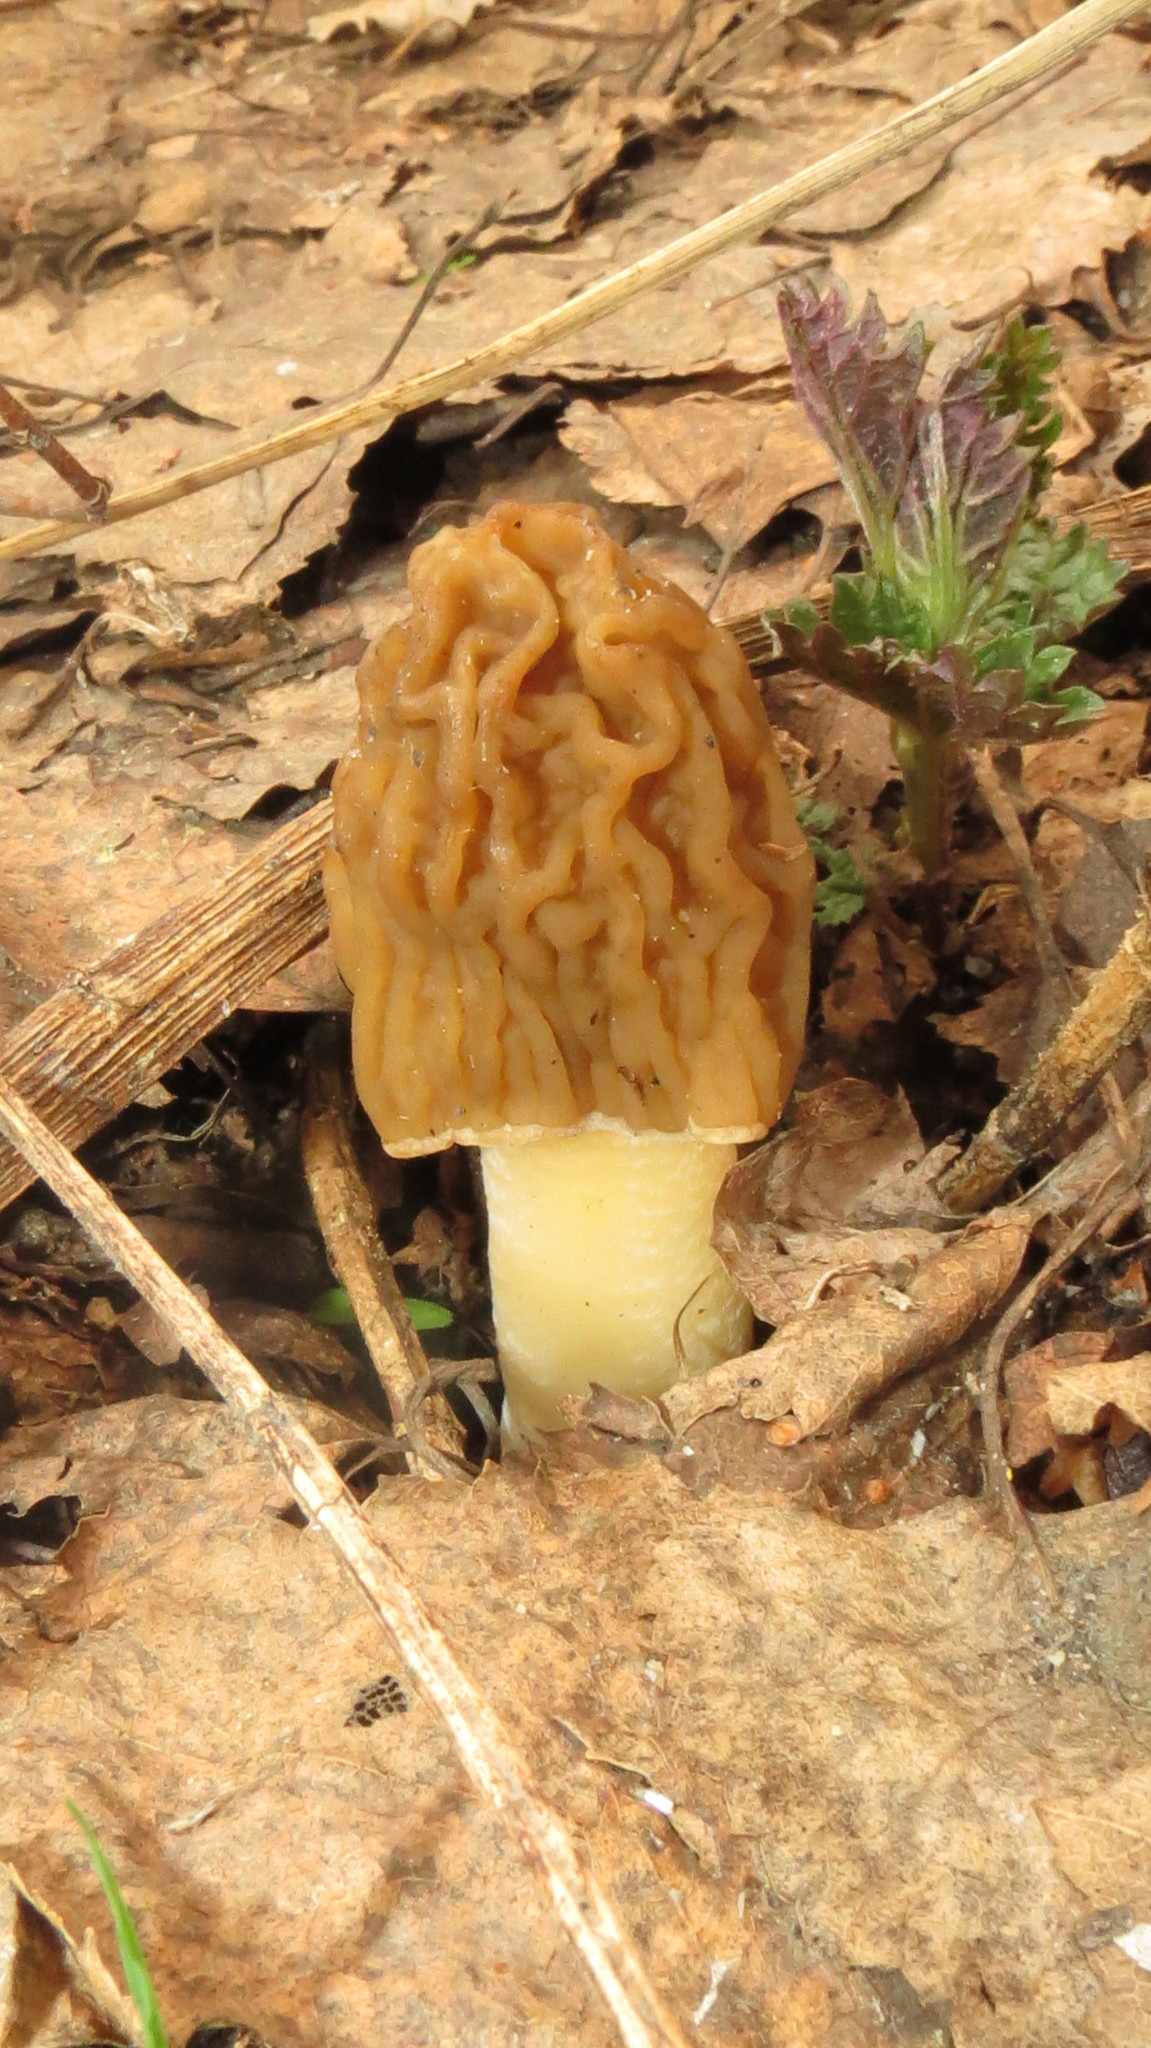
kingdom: Fungi
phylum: Ascomycota
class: Pezizomycetes
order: Pezizales
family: Morchellaceae
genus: Verpa
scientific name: Verpa bohemica
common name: Wrinkled thimble morel
